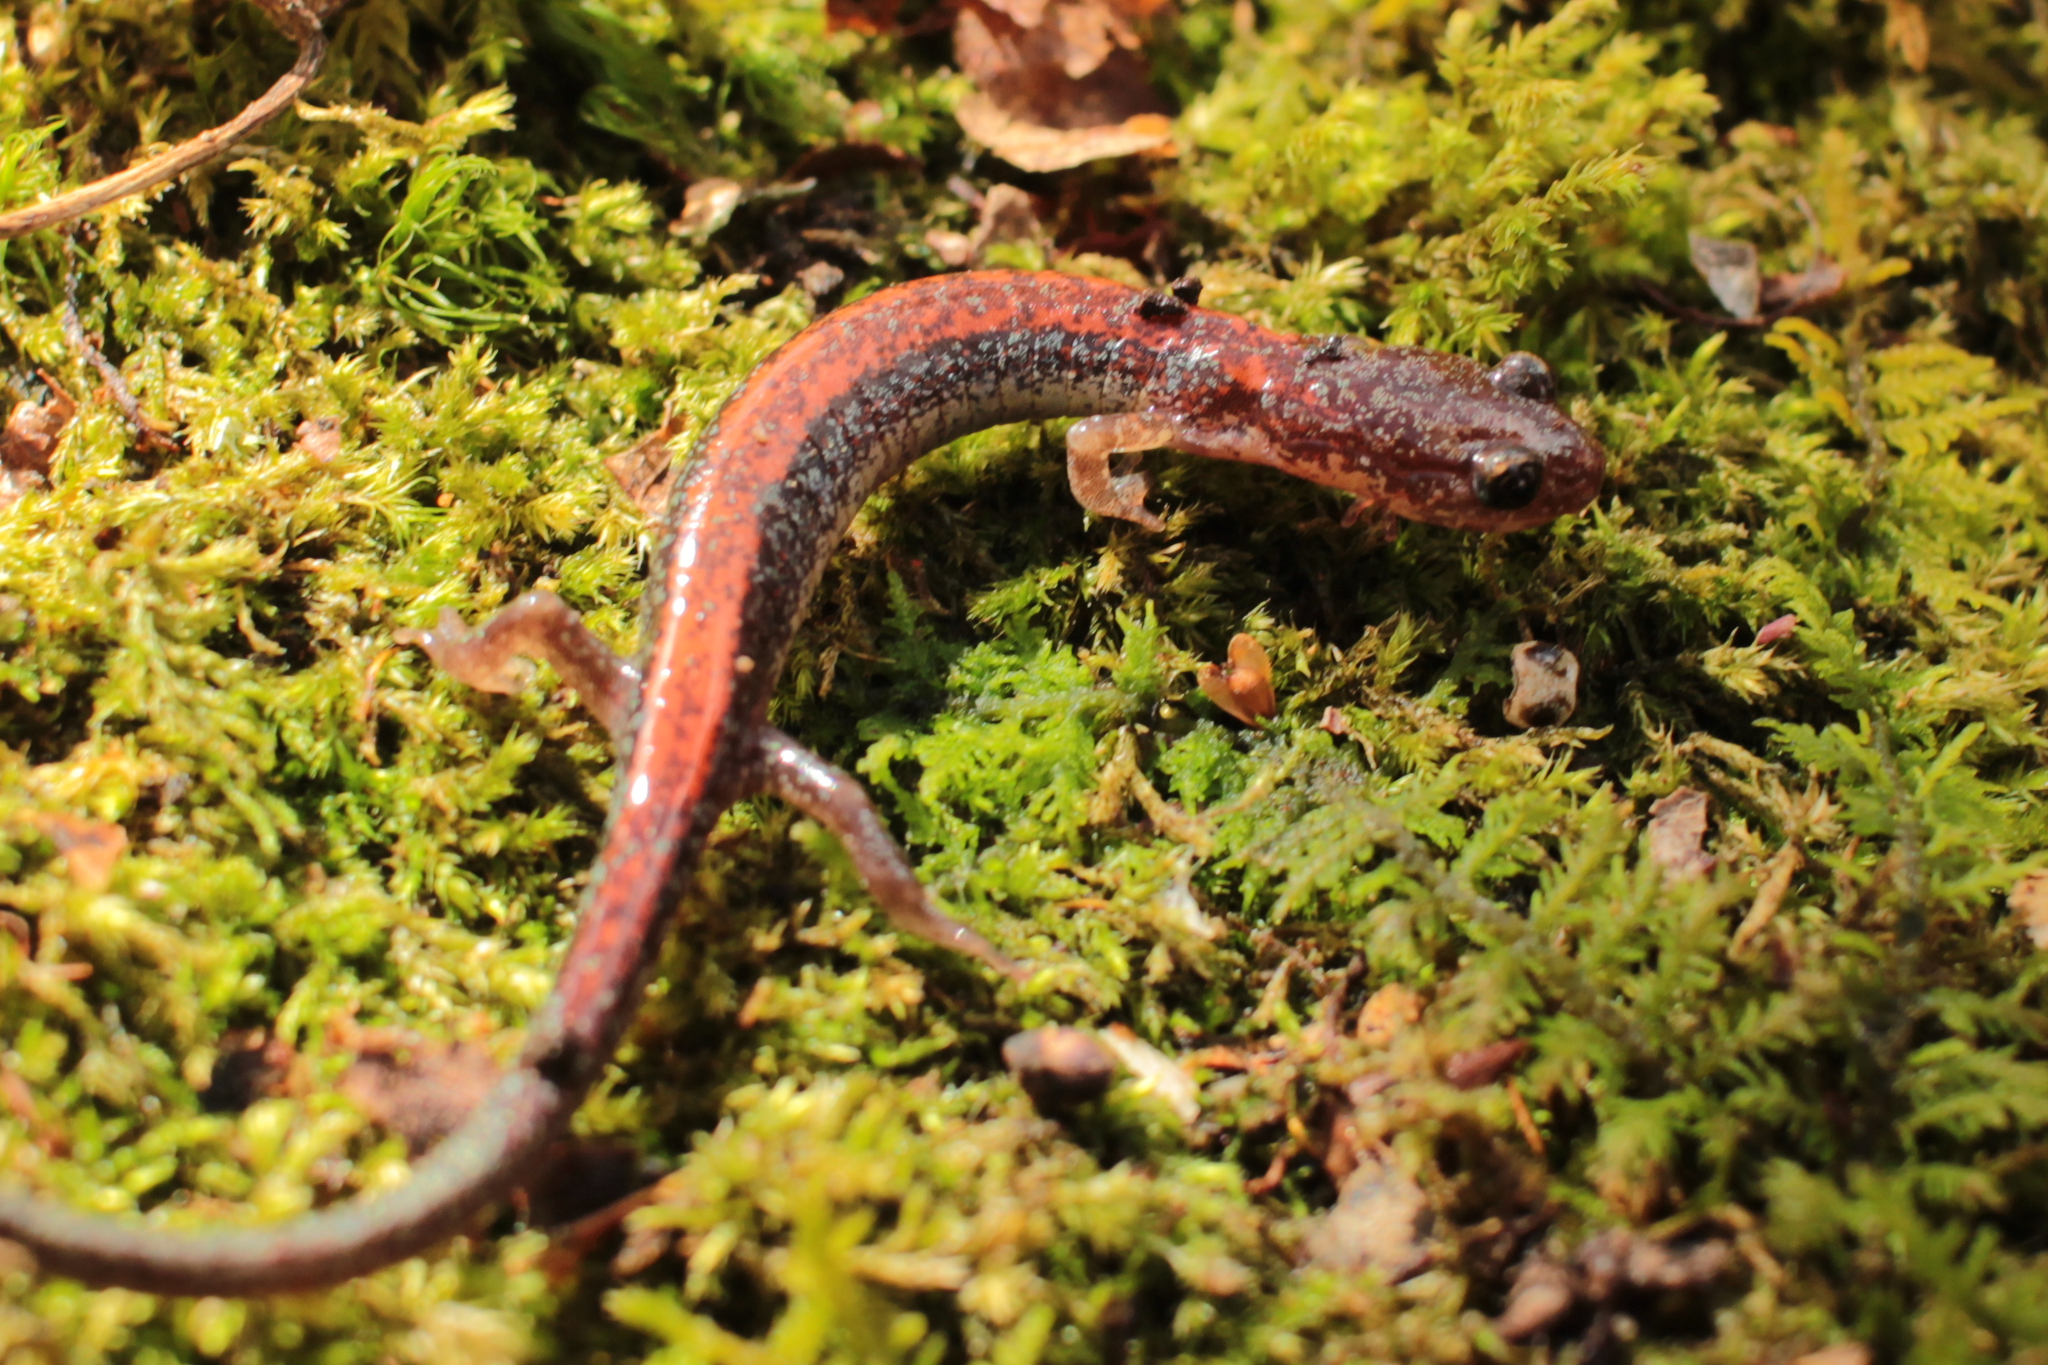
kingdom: Animalia
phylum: Chordata
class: Amphibia
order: Caudata
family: Plethodontidae
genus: Plethodon
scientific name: Plethodon sherando
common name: Big levels salamander
